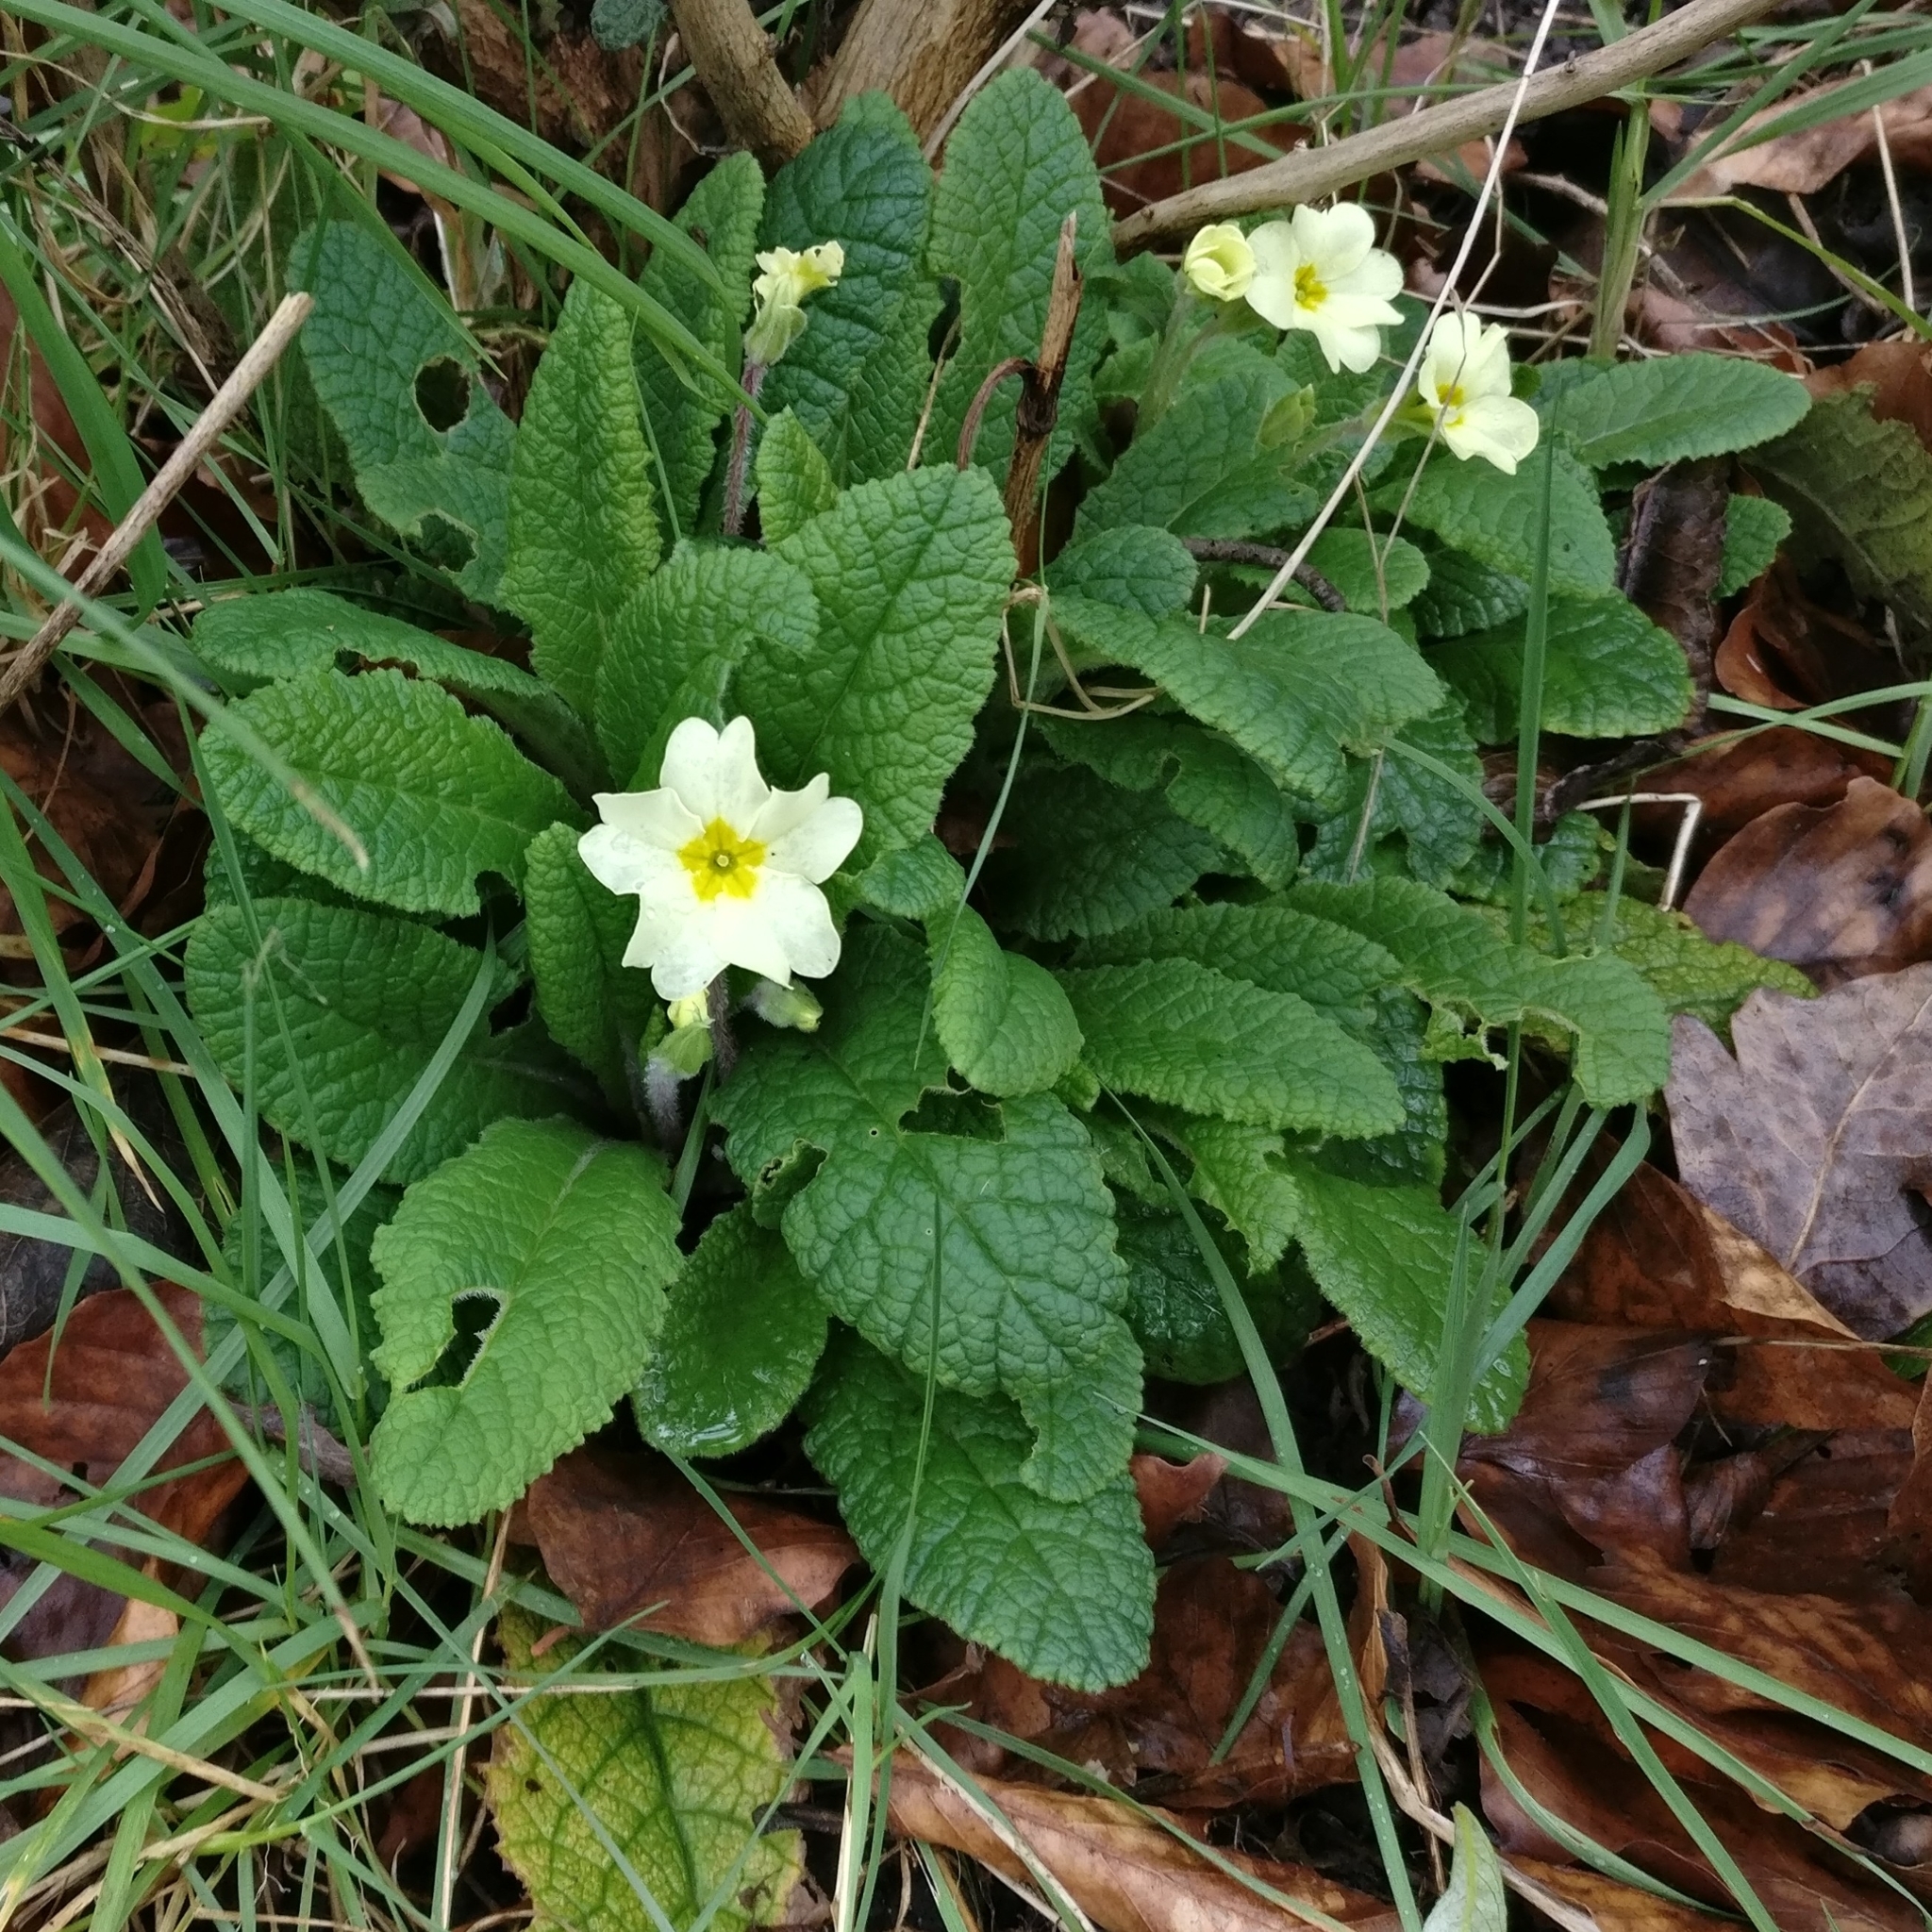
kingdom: Plantae
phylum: Tracheophyta
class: Magnoliopsida
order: Ericales
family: Primulaceae
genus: Primula
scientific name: Primula vulgaris
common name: Primrose
